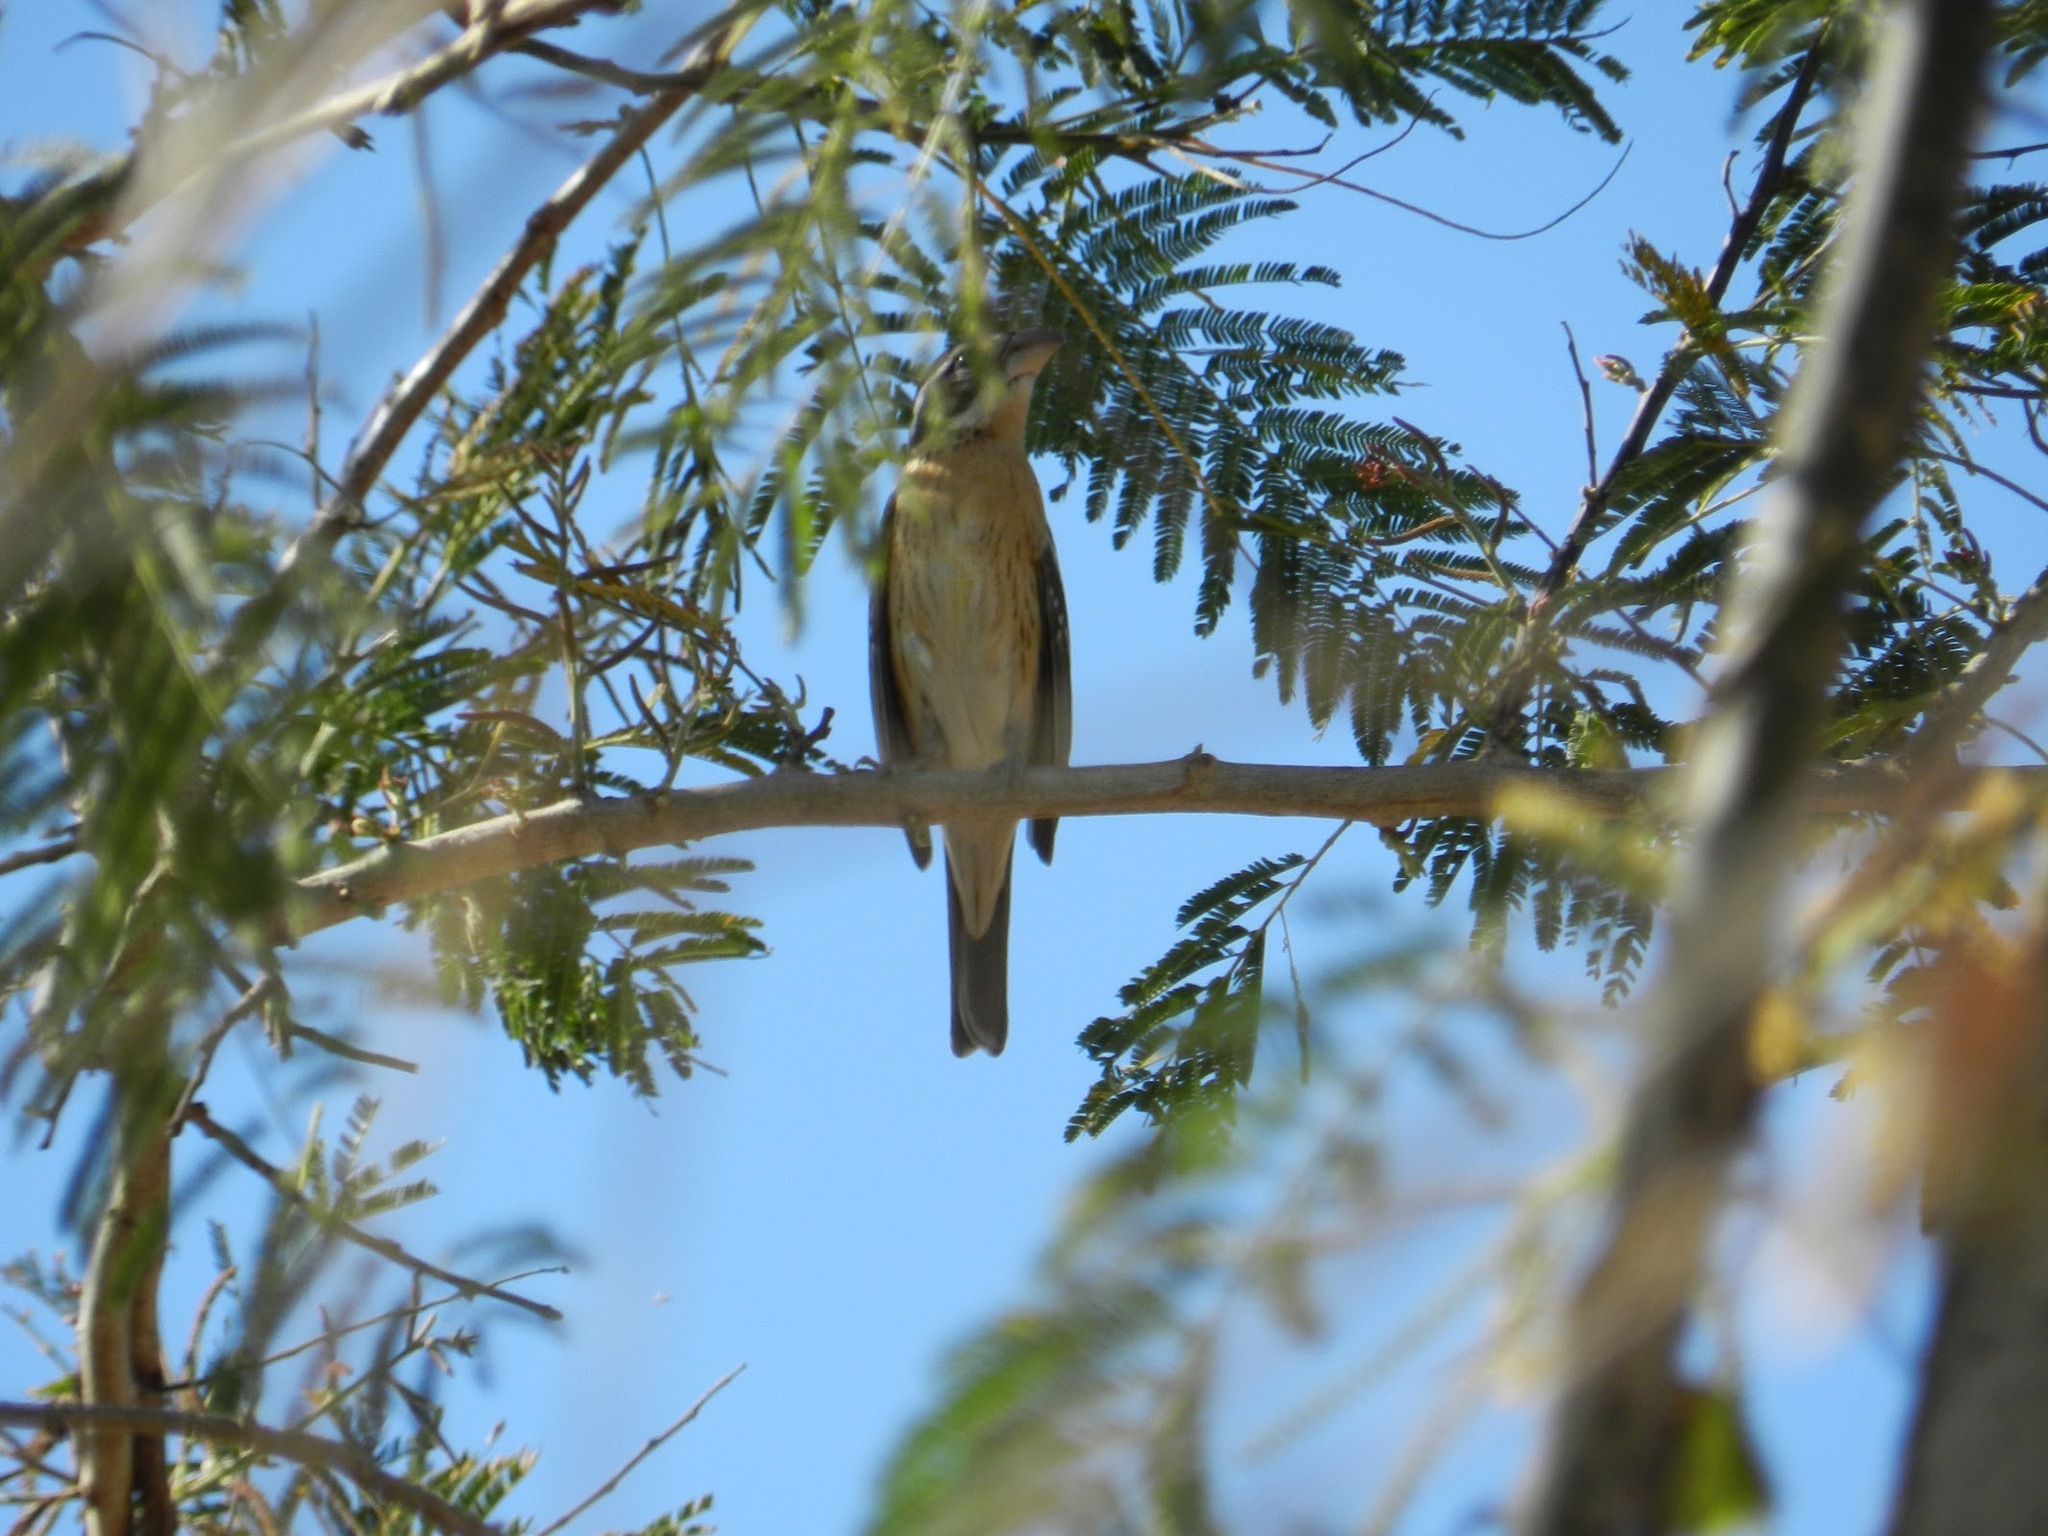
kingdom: Animalia
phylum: Chordata
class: Aves
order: Passeriformes
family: Cardinalidae
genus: Pheucticus
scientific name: Pheucticus melanocephalus
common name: Black-headed grosbeak
